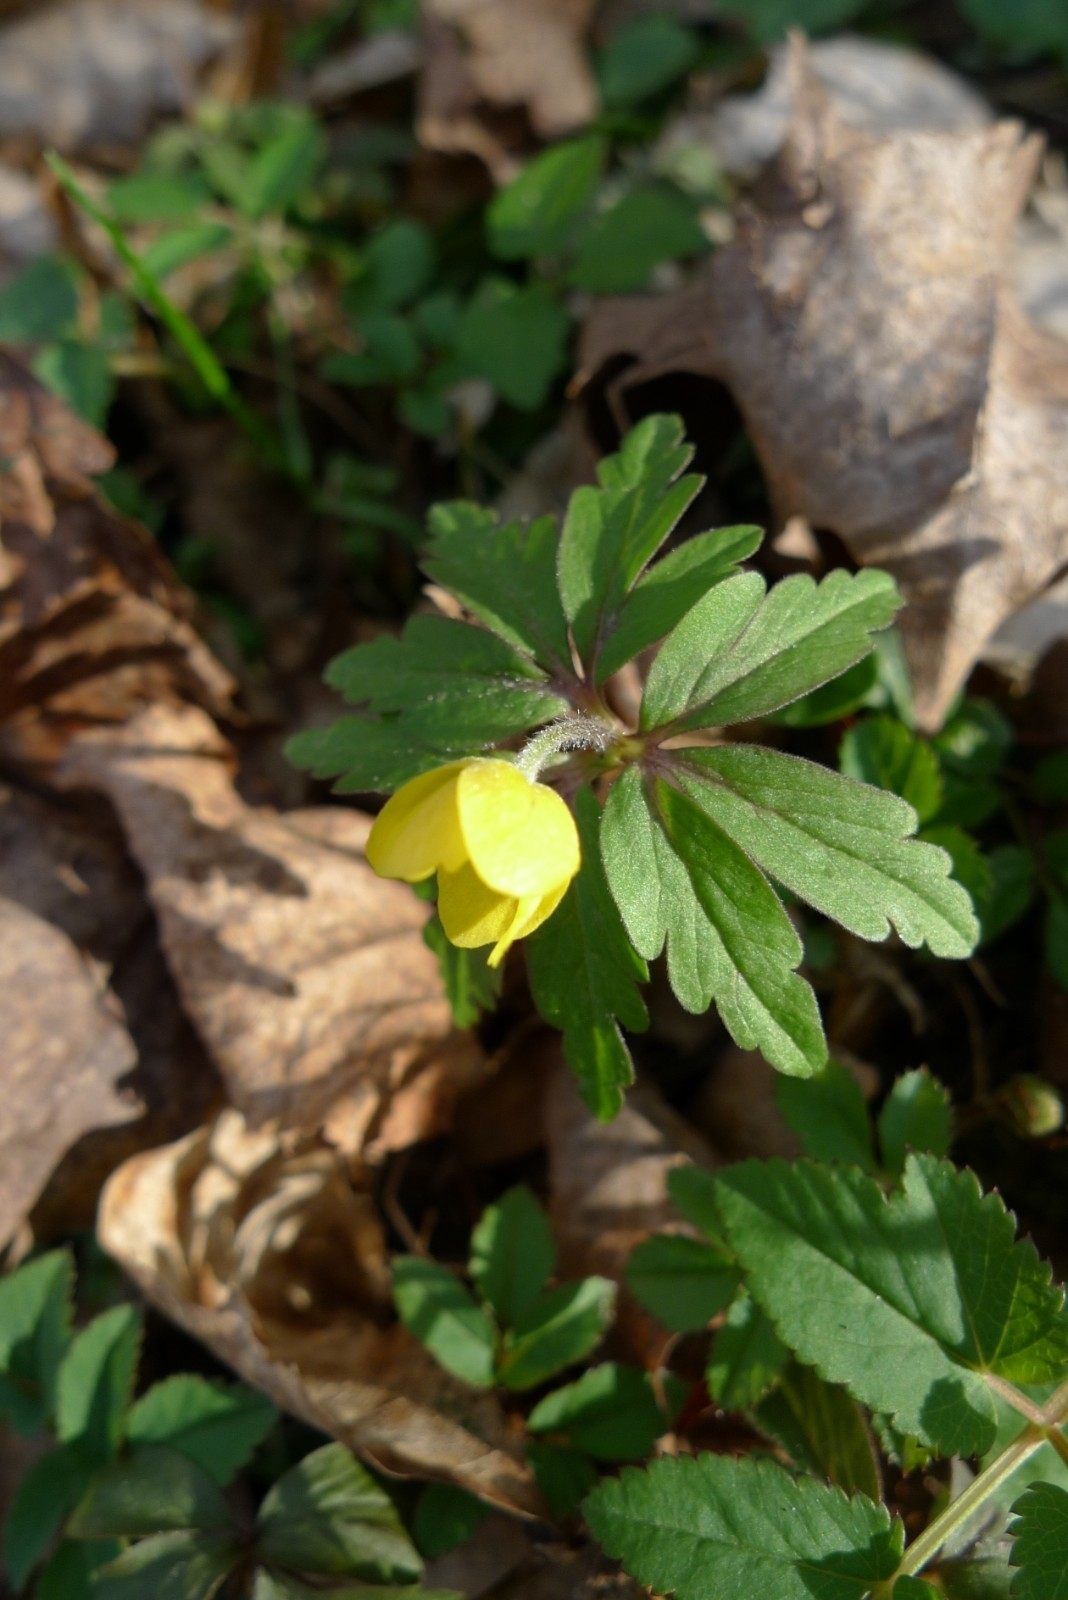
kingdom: Plantae
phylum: Tracheophyta
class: Magnoliopsida
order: Ranunculales
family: Ranunculaceae
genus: Anemone
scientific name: Anemone ranunculoides
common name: Yellow anemone
